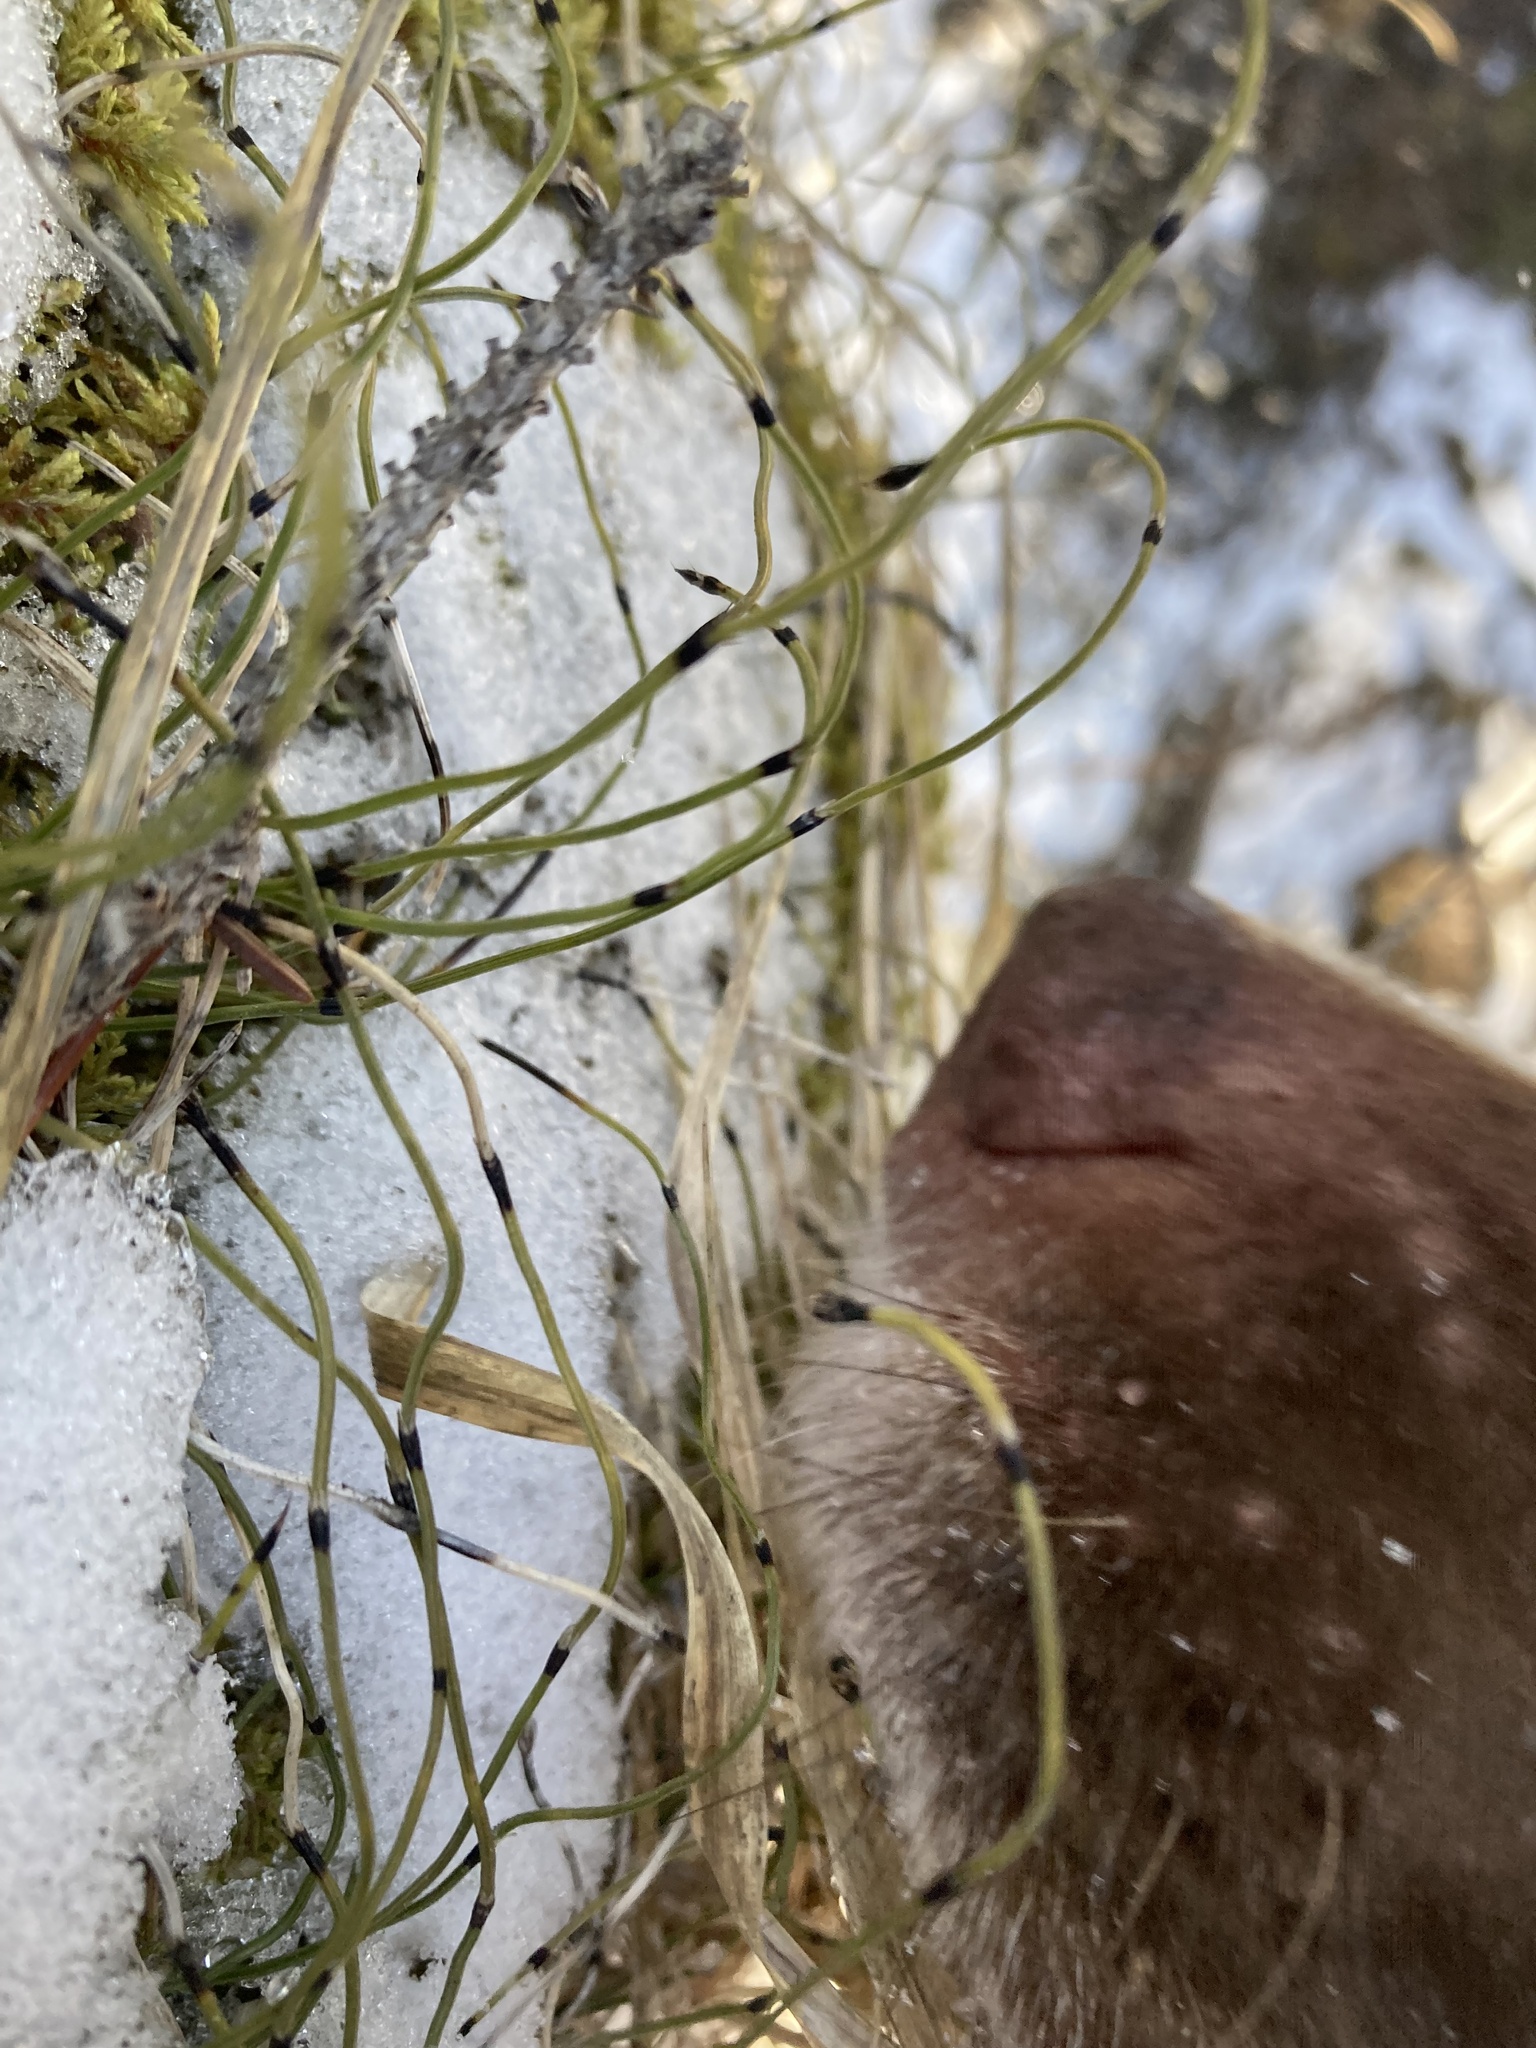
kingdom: Plantae
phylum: Tracheophyta
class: Polypodiopsida
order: Equisetales
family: Equisetaceae
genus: Equisetum
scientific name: Equisetum scirpoides
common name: Delicate horsetail
